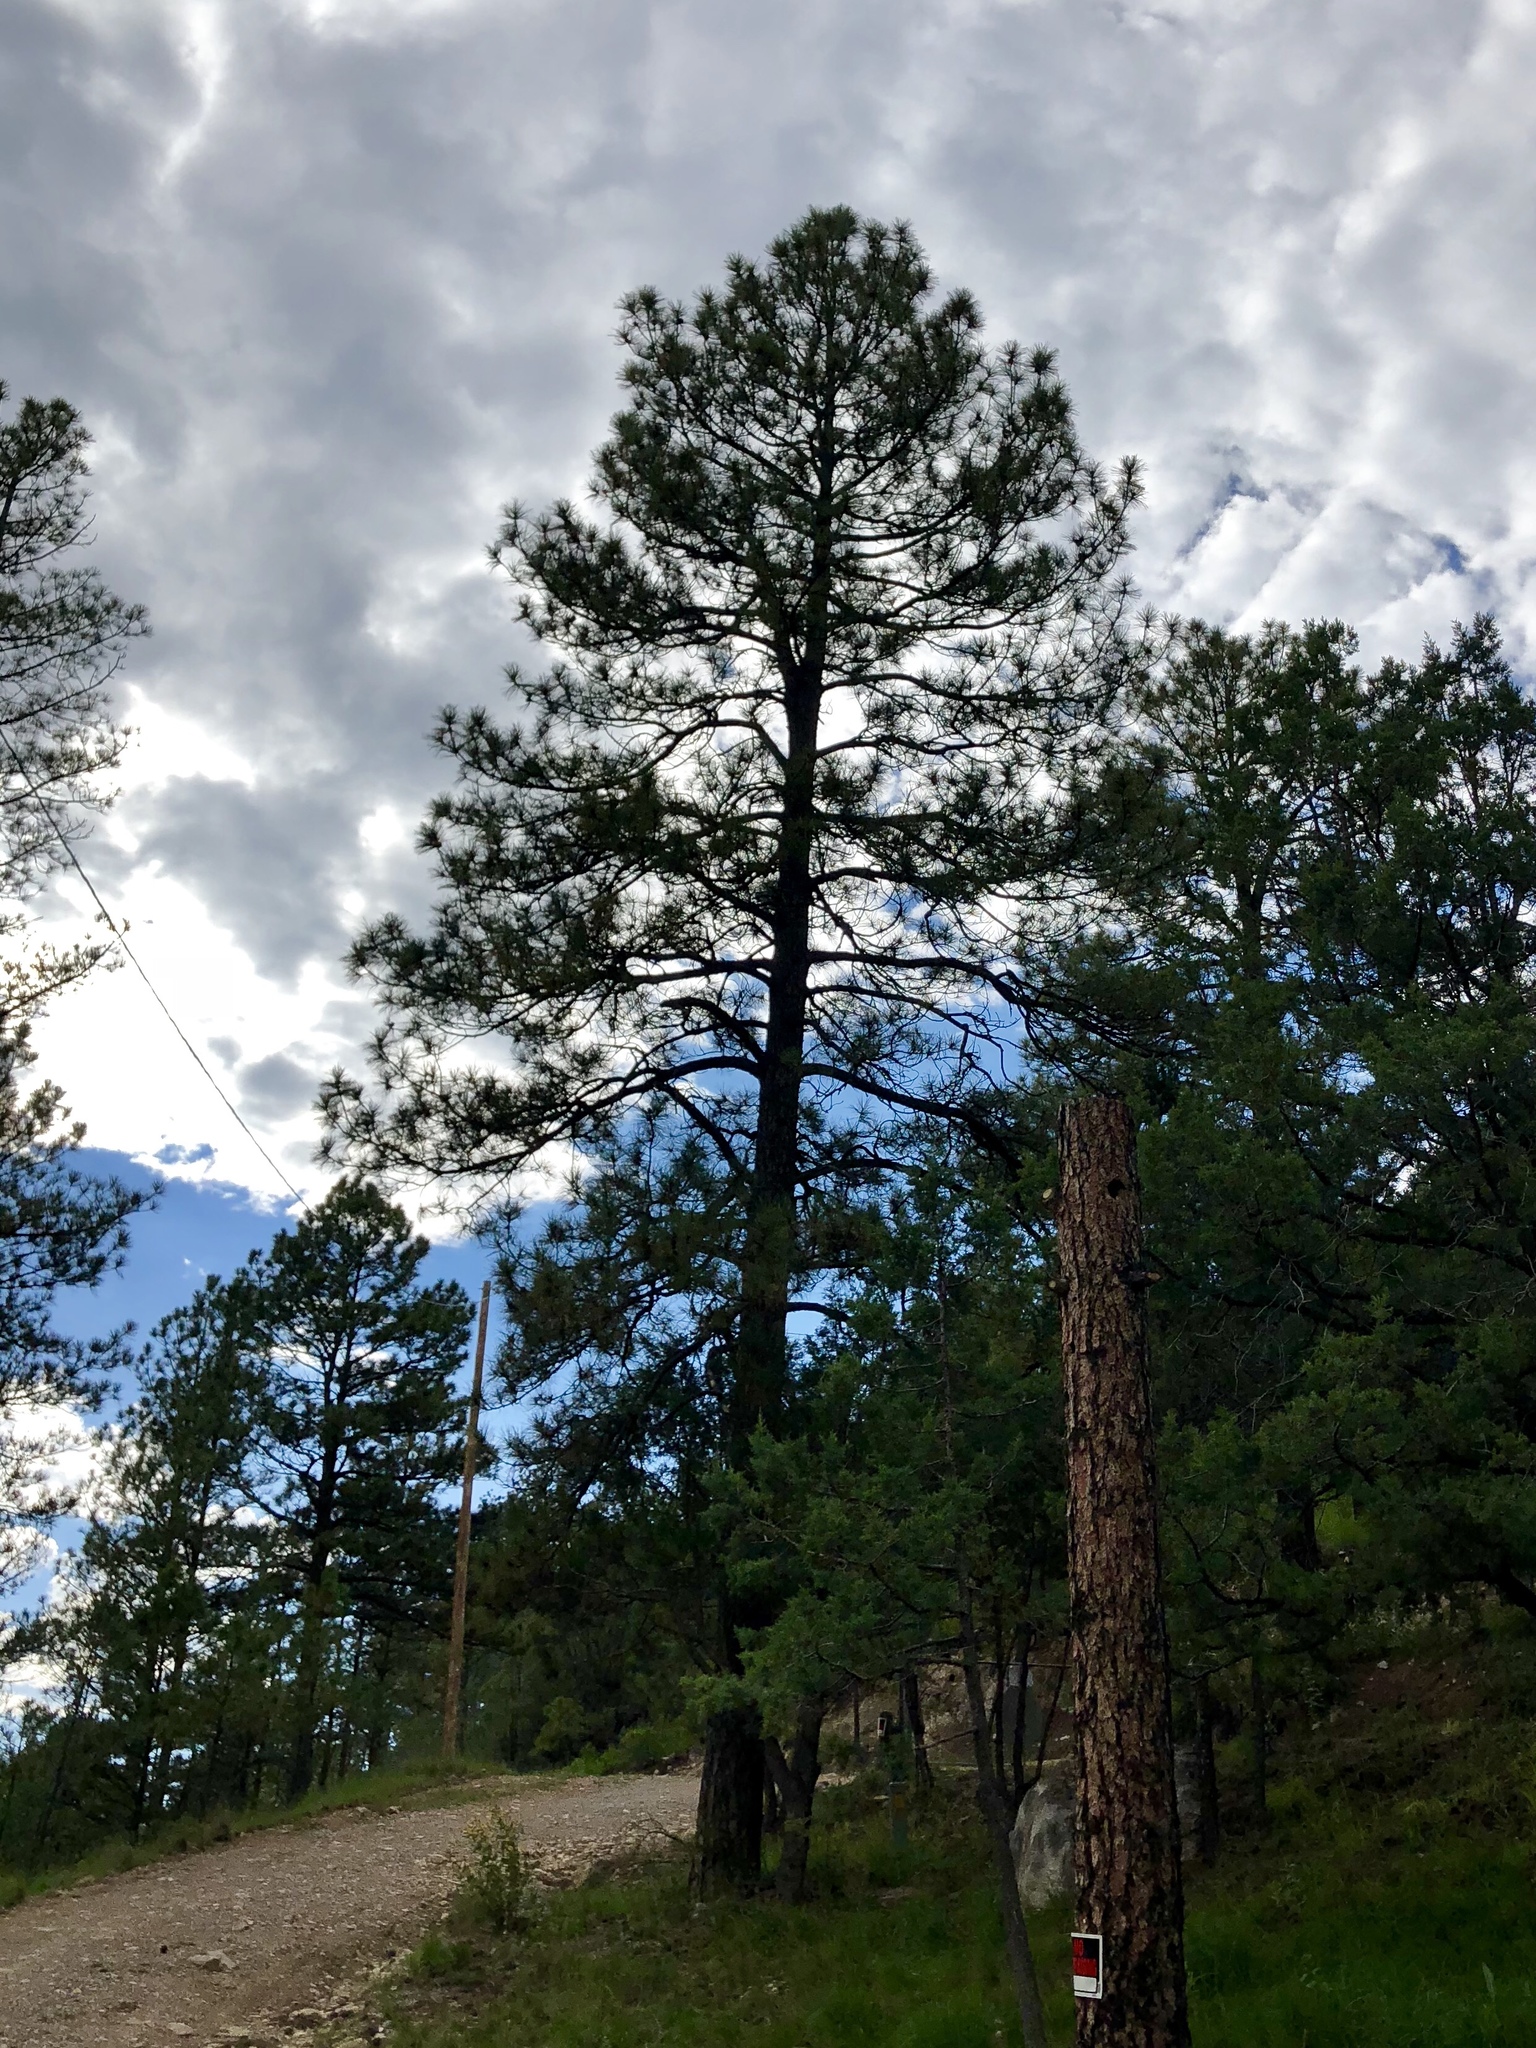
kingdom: Plantae
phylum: Tracheophyta
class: Pinopsida
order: Pinales
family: Pinaceae
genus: Pinus
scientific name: Pinus ponderosa
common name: Western yellow-pine
